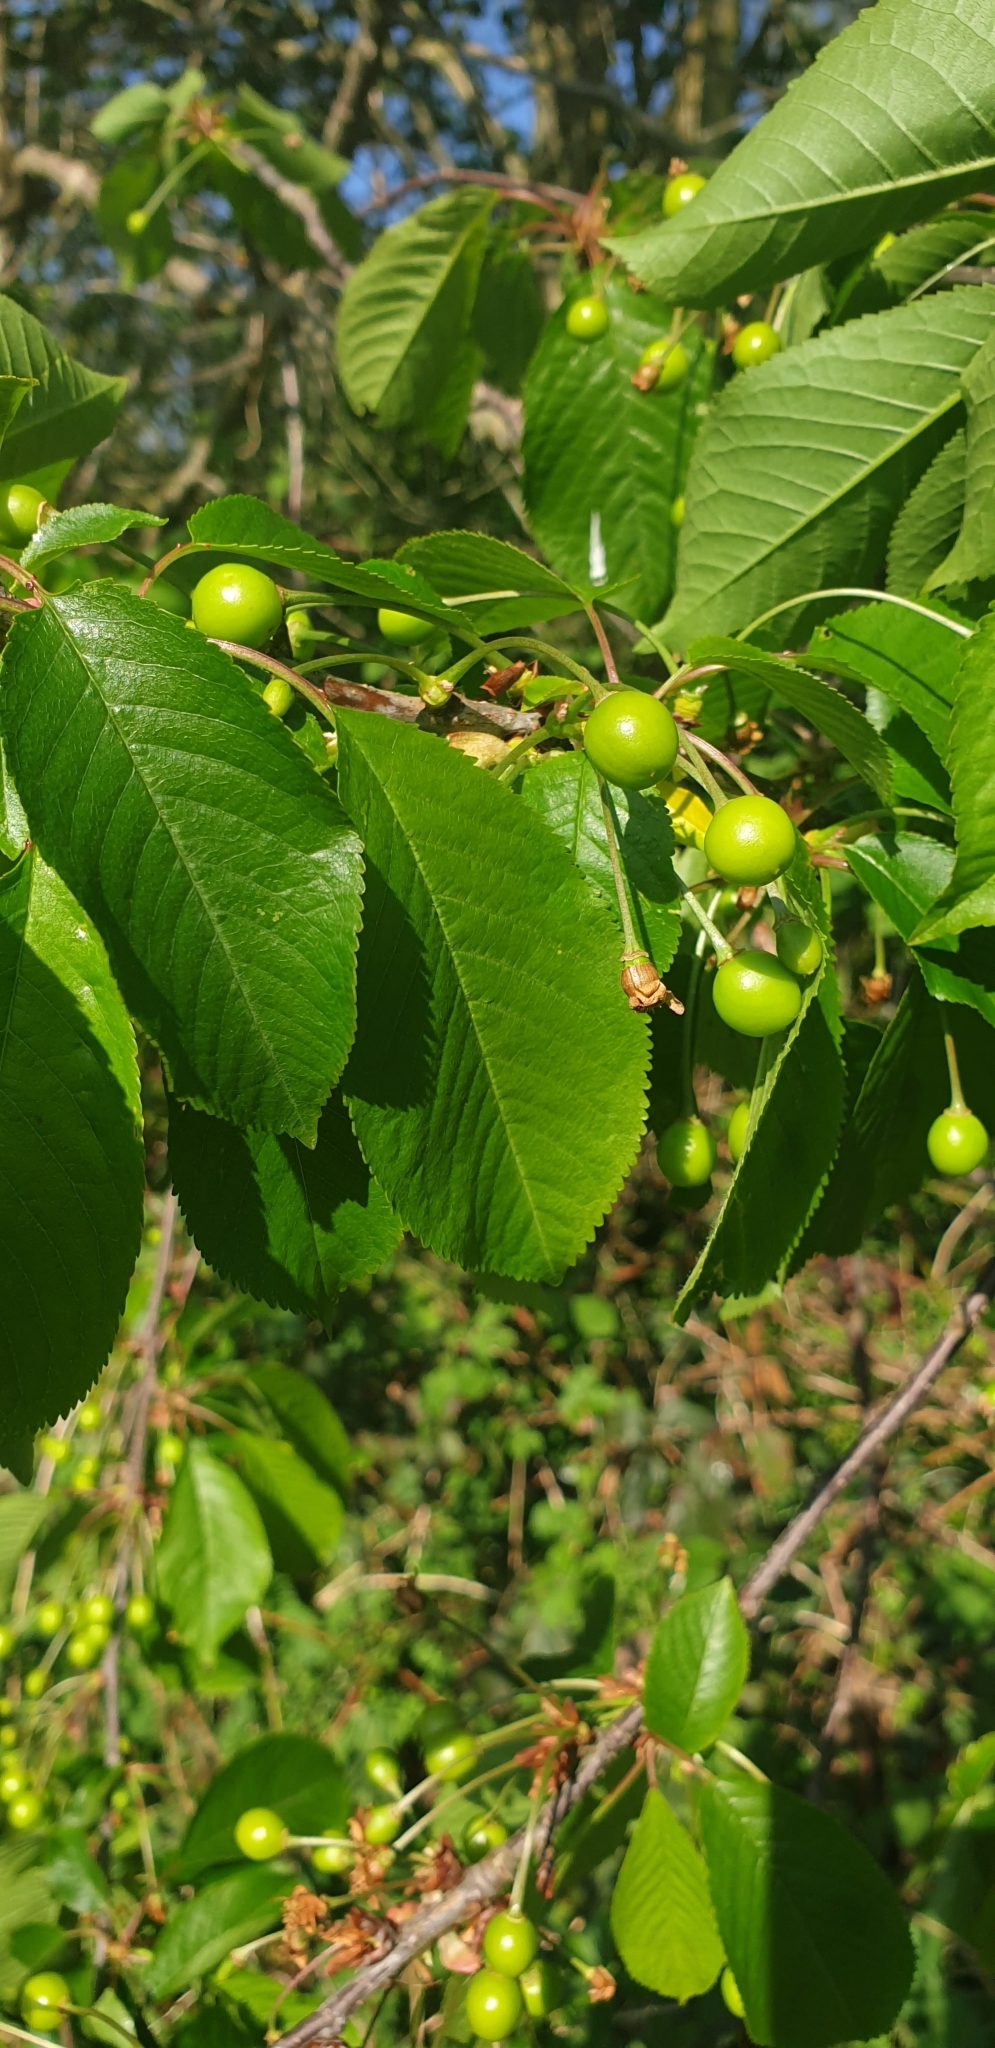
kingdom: Plantae
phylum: Tracheophyta
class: Magnoliopsida
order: Rosales
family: Rosaceae
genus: Prunus
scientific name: Prunus avium
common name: Sweet cherry
